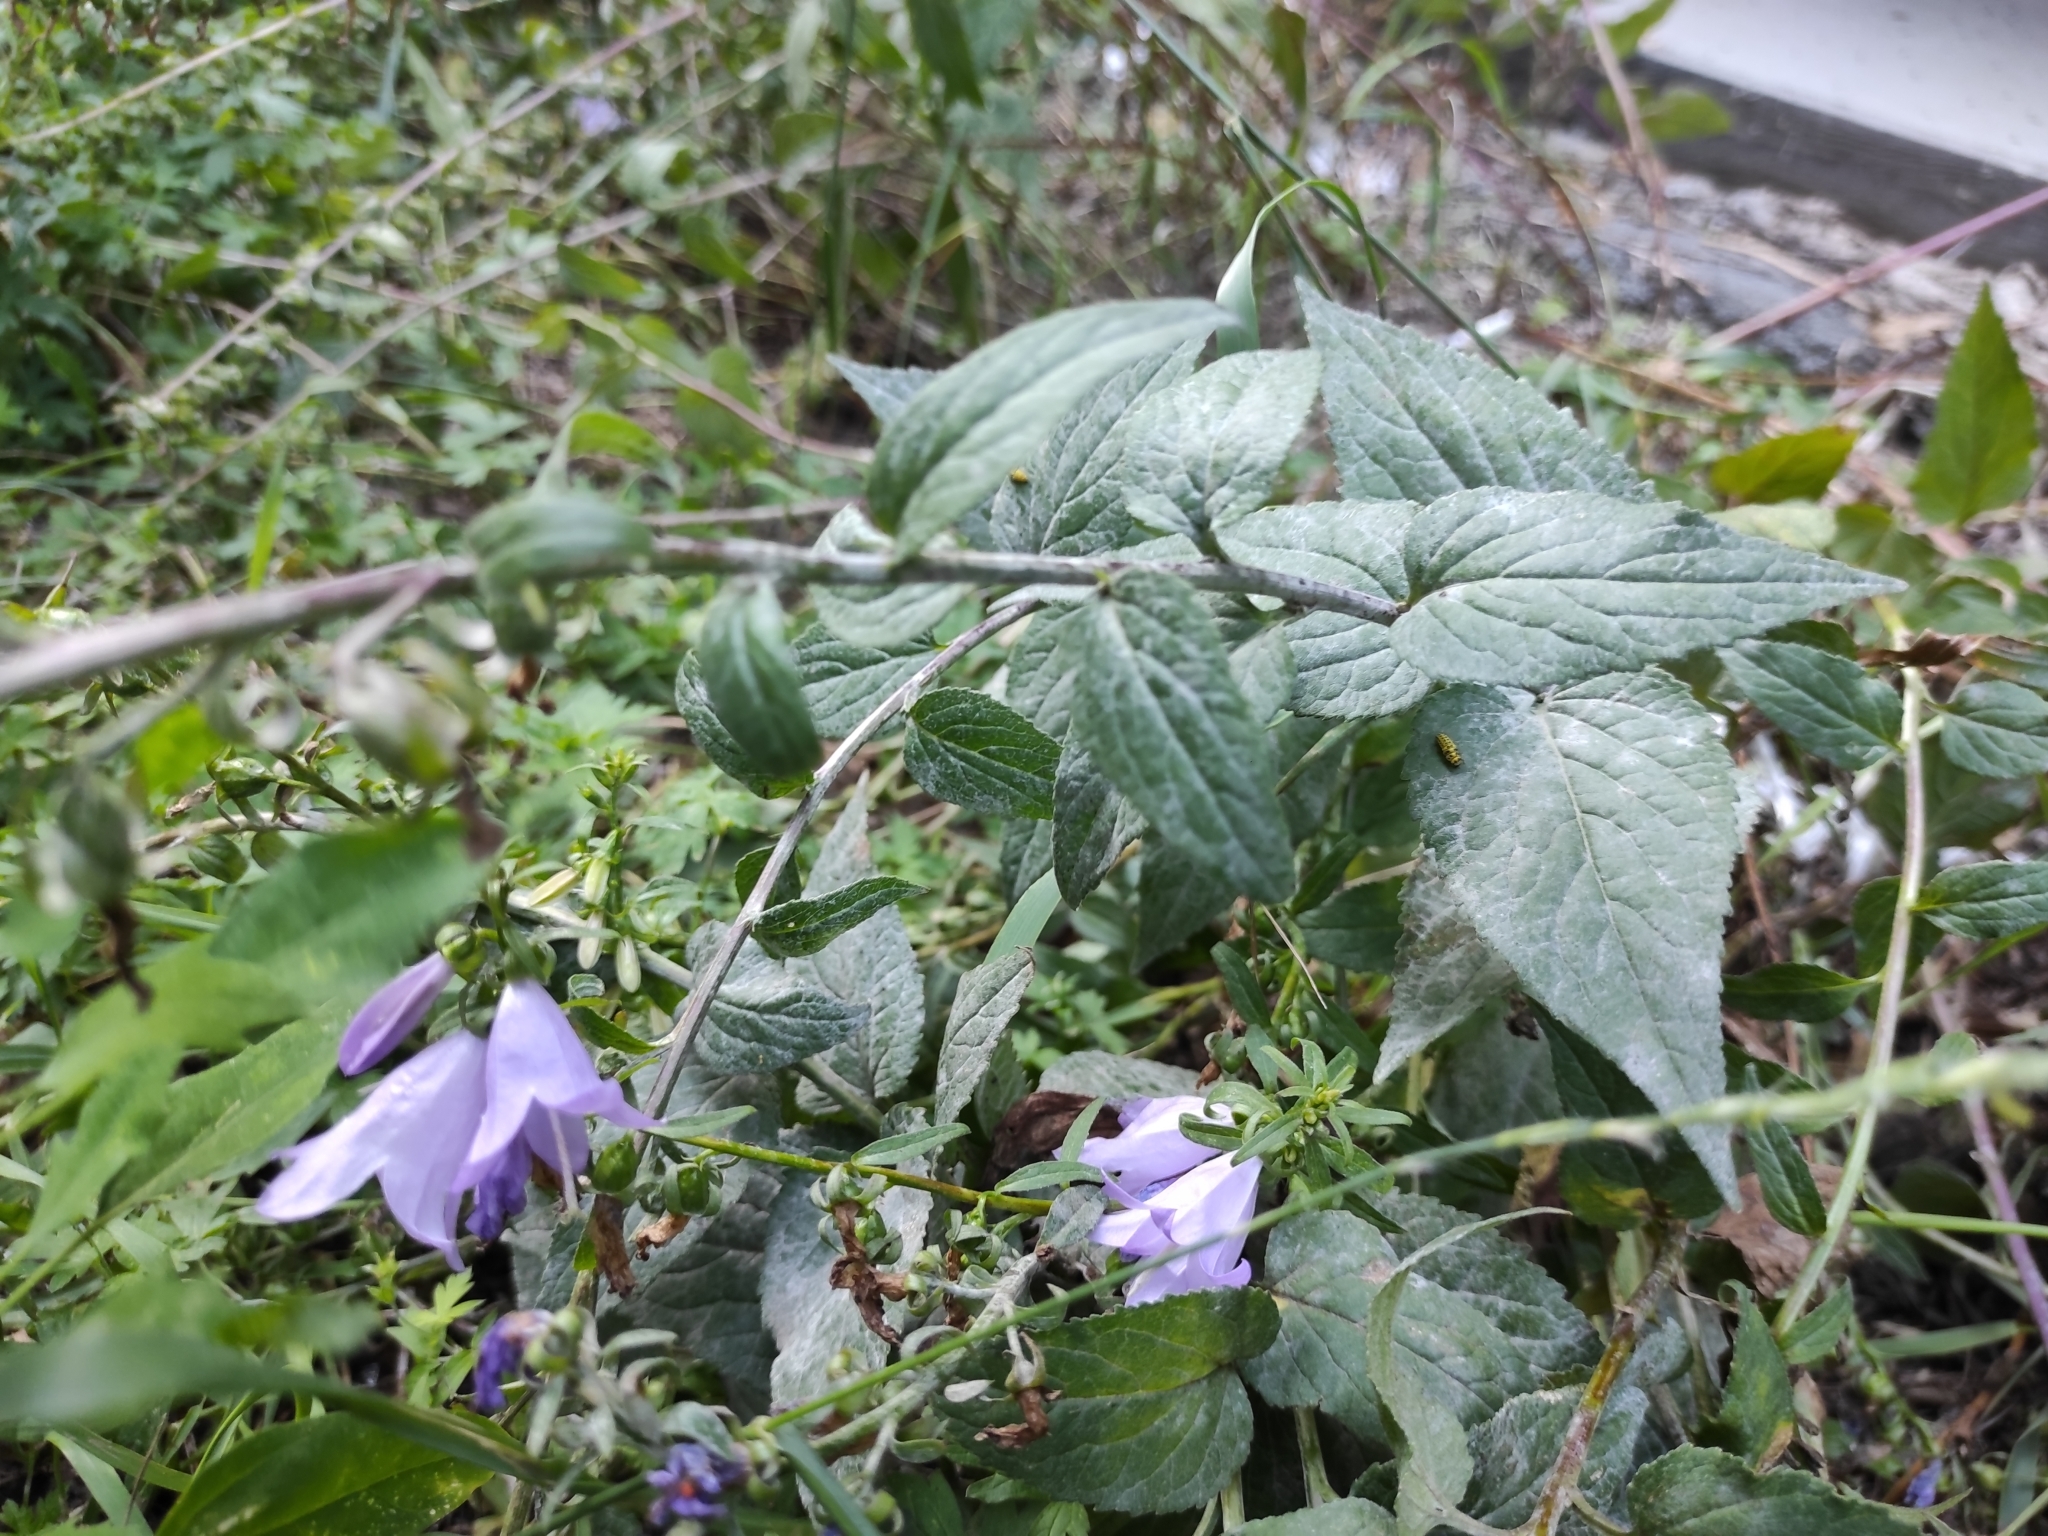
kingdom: Plantae
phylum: Tracheophyta
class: Magnoliopsida
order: Asterales
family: Campanulaceae
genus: Campanula
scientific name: Campanula rapunculoides
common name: Creeping bellflower
